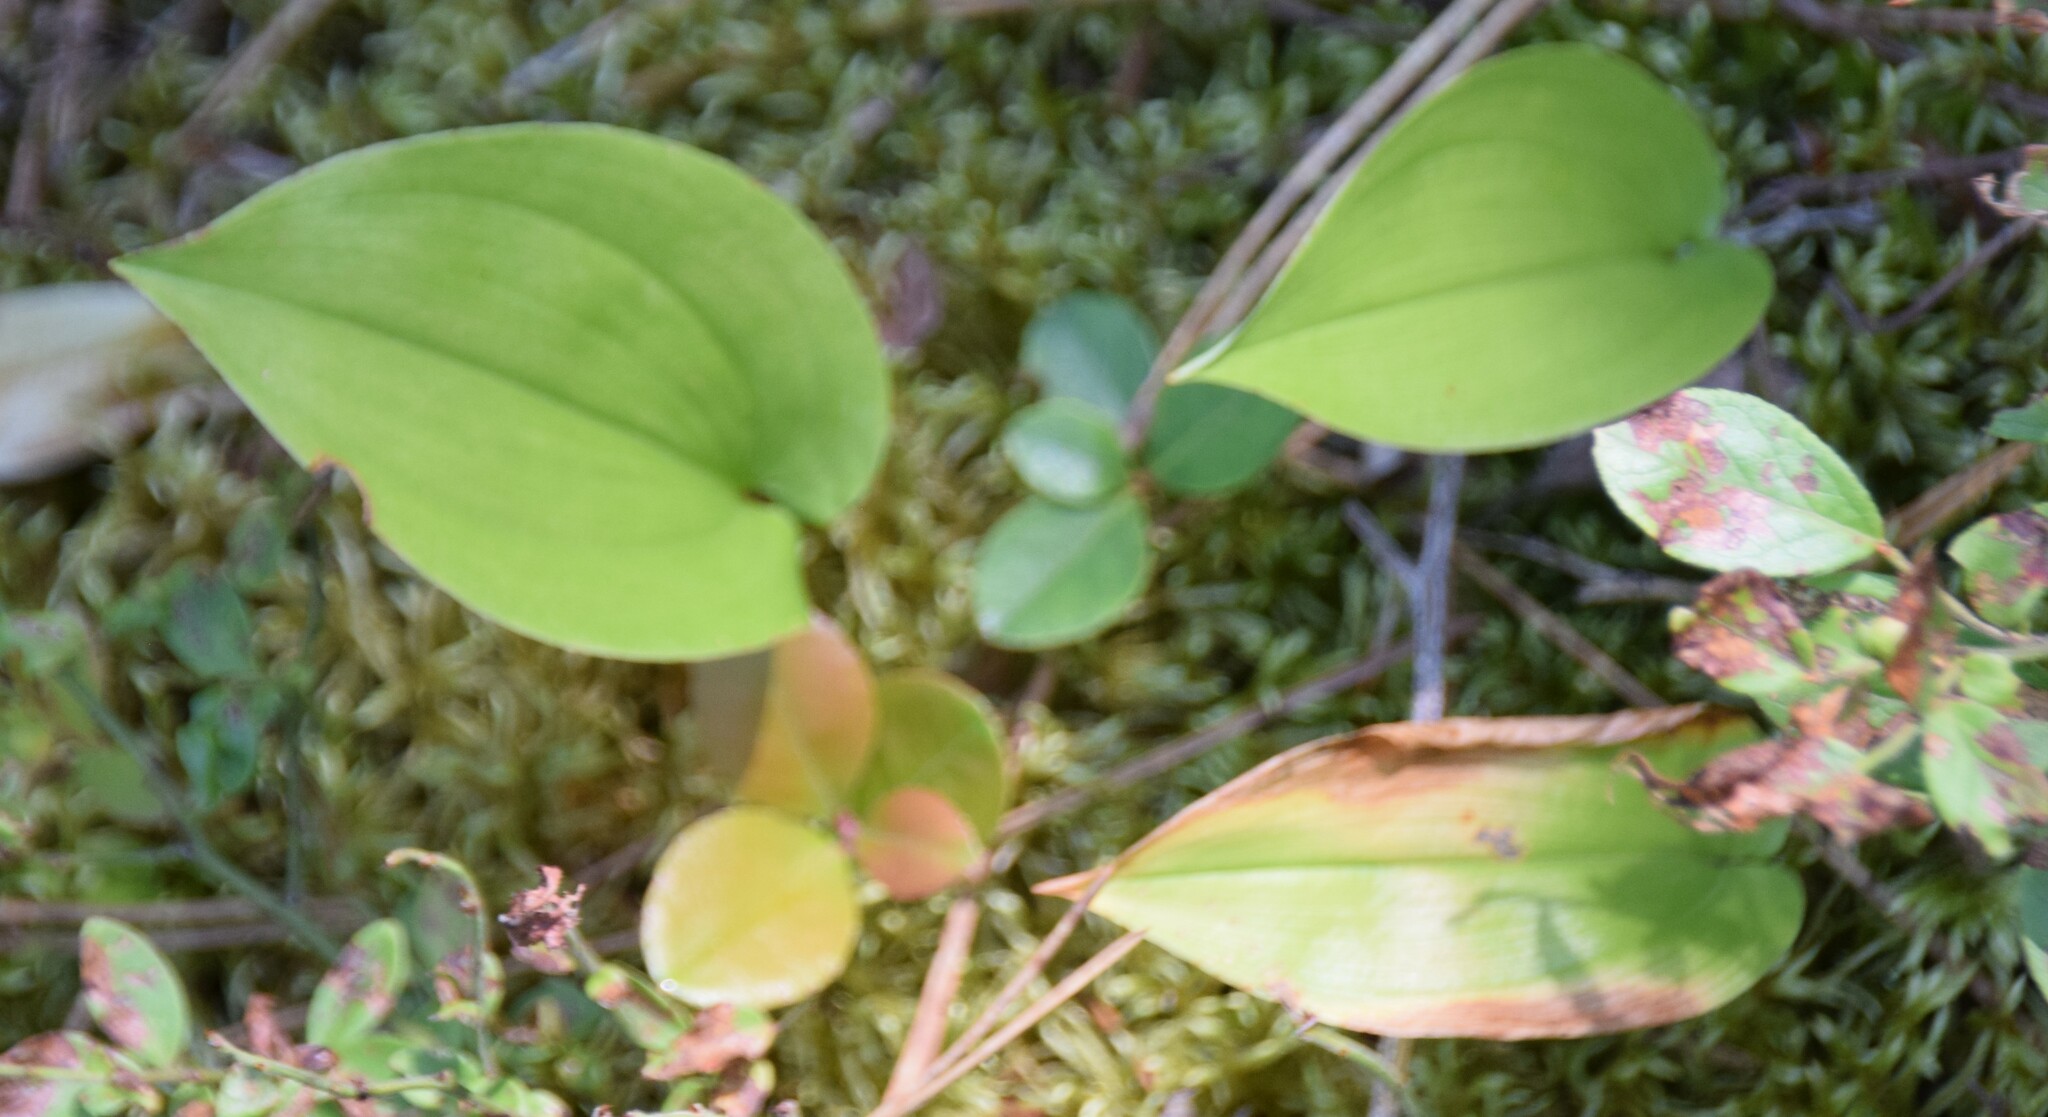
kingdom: Plantae
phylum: Tracheophyta
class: Liliopsida
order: Asparagales
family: Asparagaceae
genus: Maianthemum
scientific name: Maianthemum canadense
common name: False lily-of-the-valley
